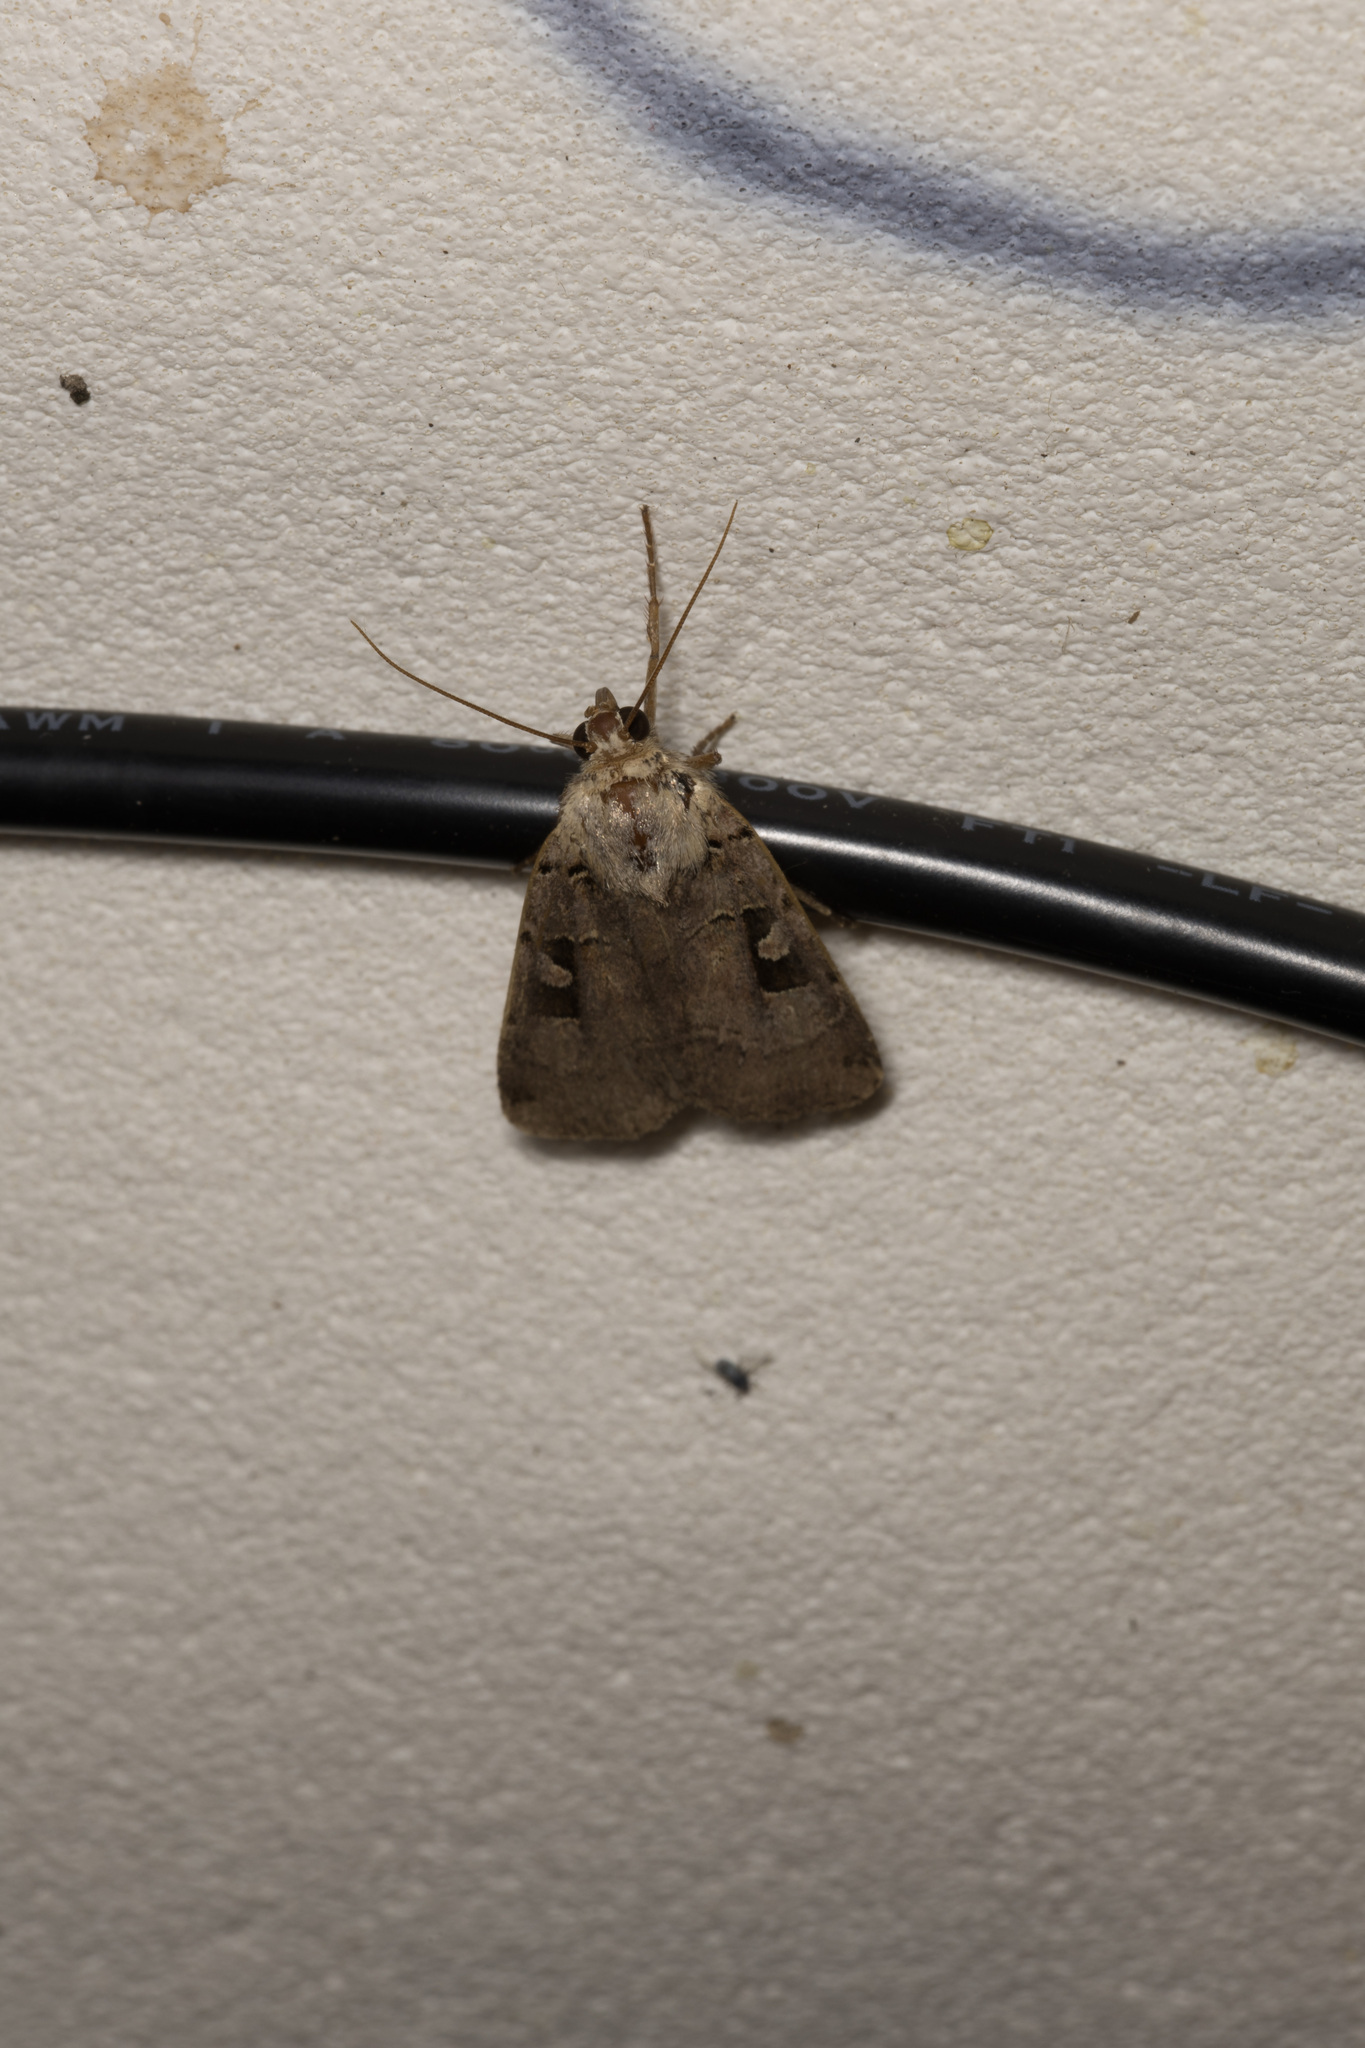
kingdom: Animalia
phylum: Arthropoda
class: Insecta
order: Lepidoptera
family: Noctuidae
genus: Xestia
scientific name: Xestia triangulum
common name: Double square-spot
